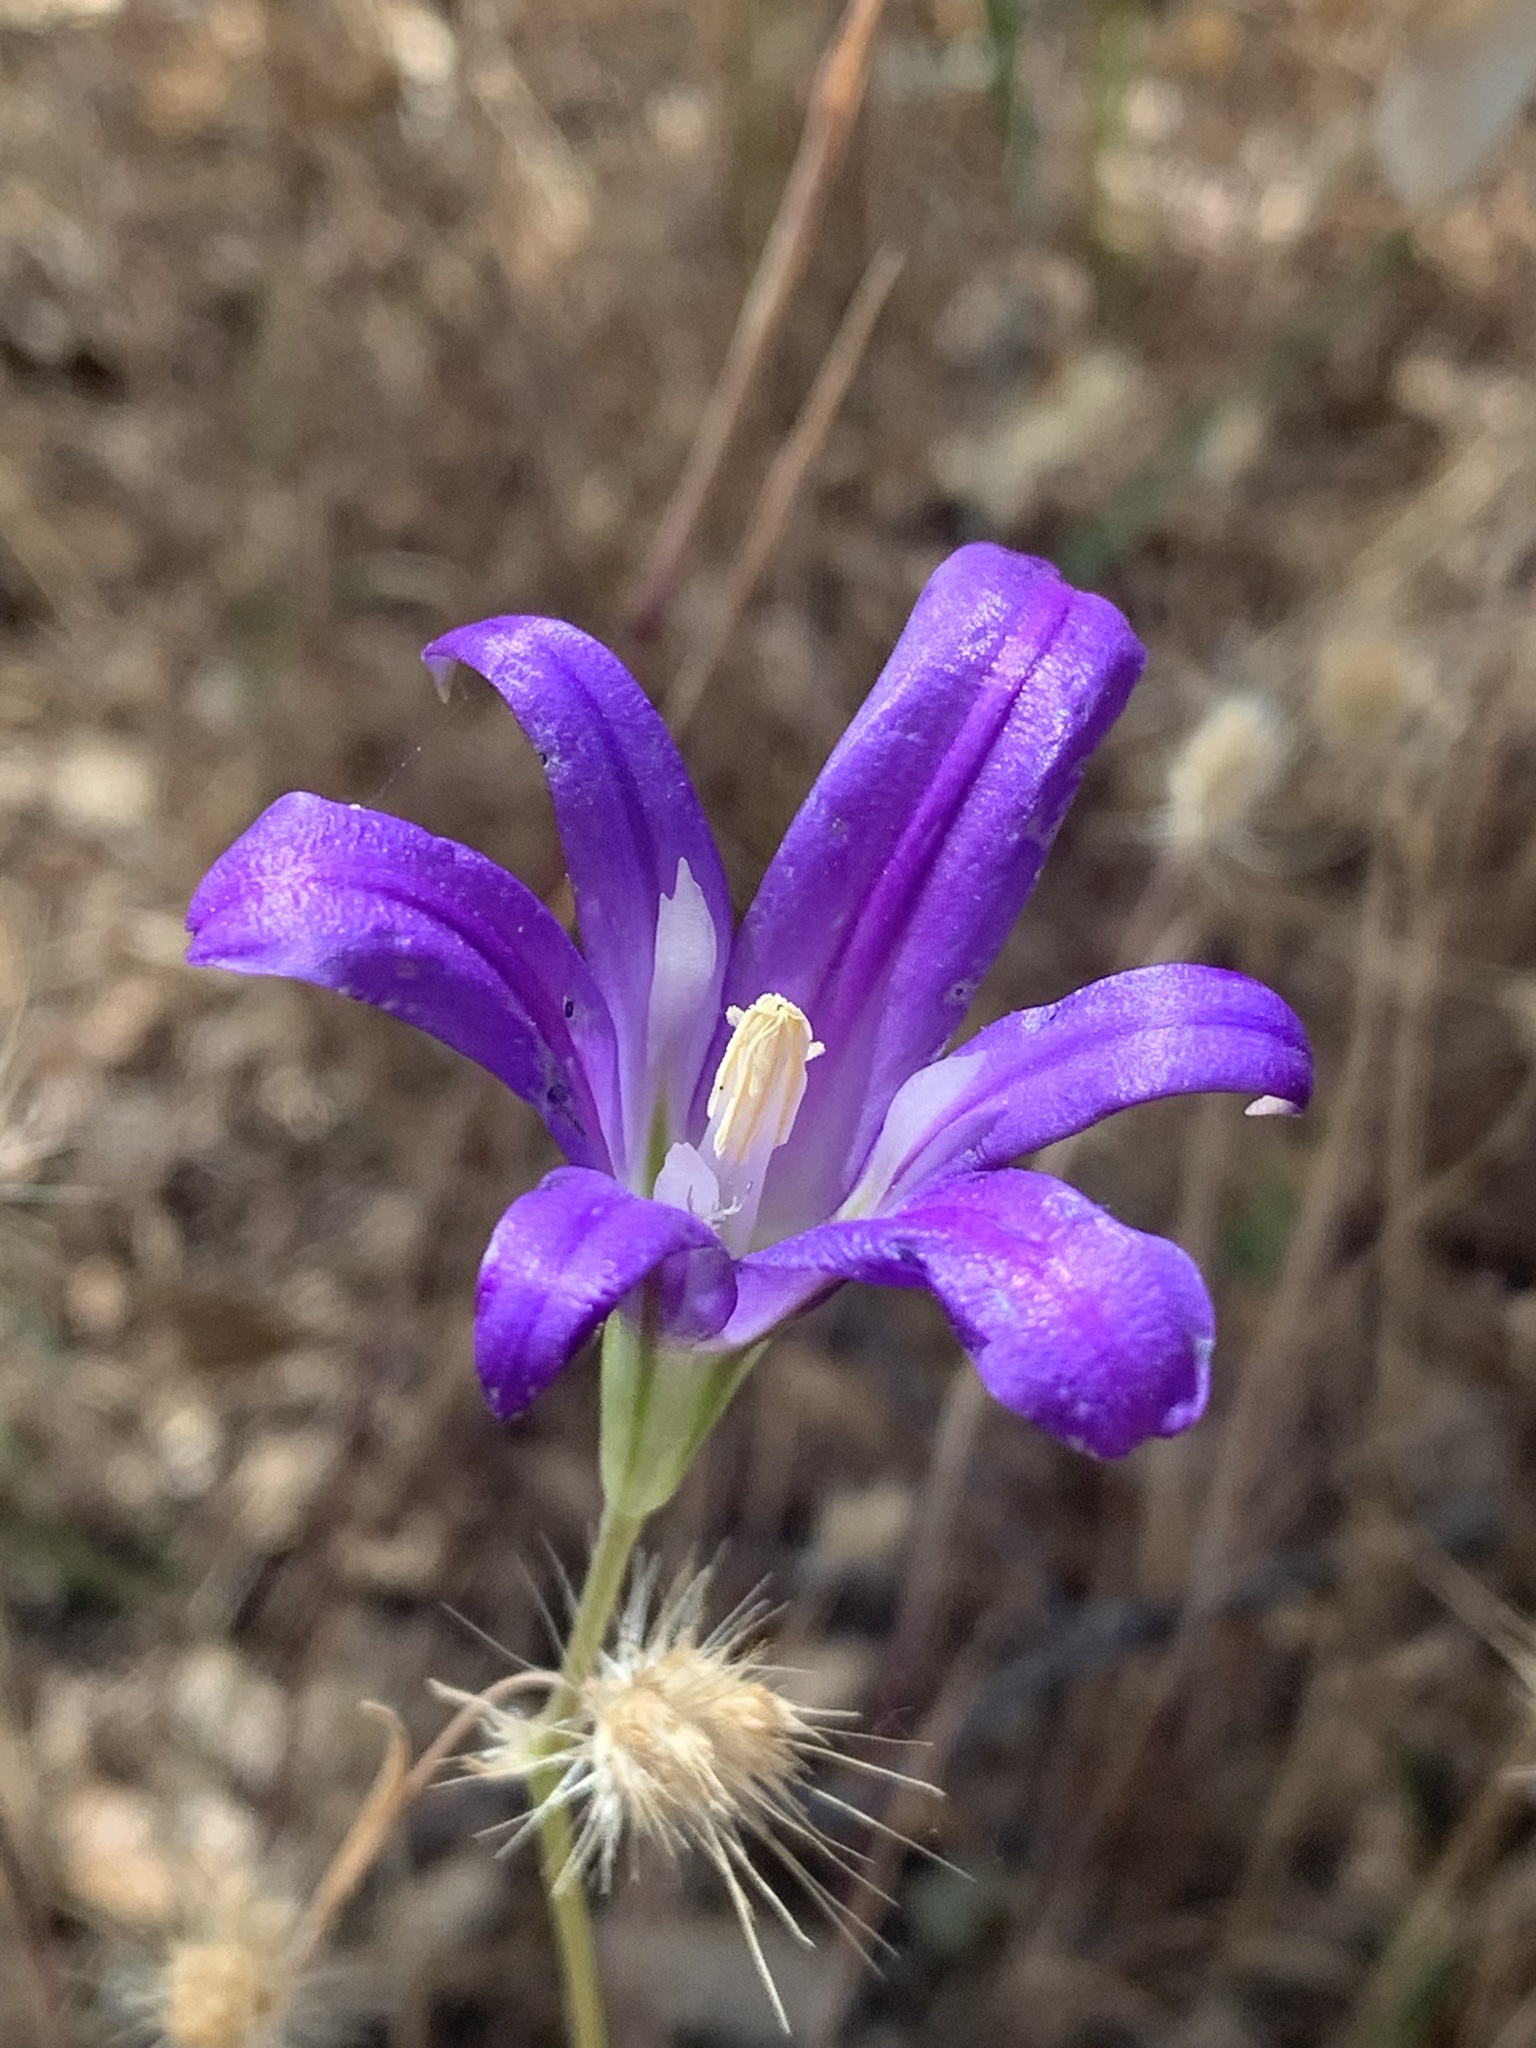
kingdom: Plantae
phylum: Tracheophyta
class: Liliopsida
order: Asparagales
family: Asparagaceae
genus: Brodiaea
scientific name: Brodiaea elegans
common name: Elegant cluster-lily
